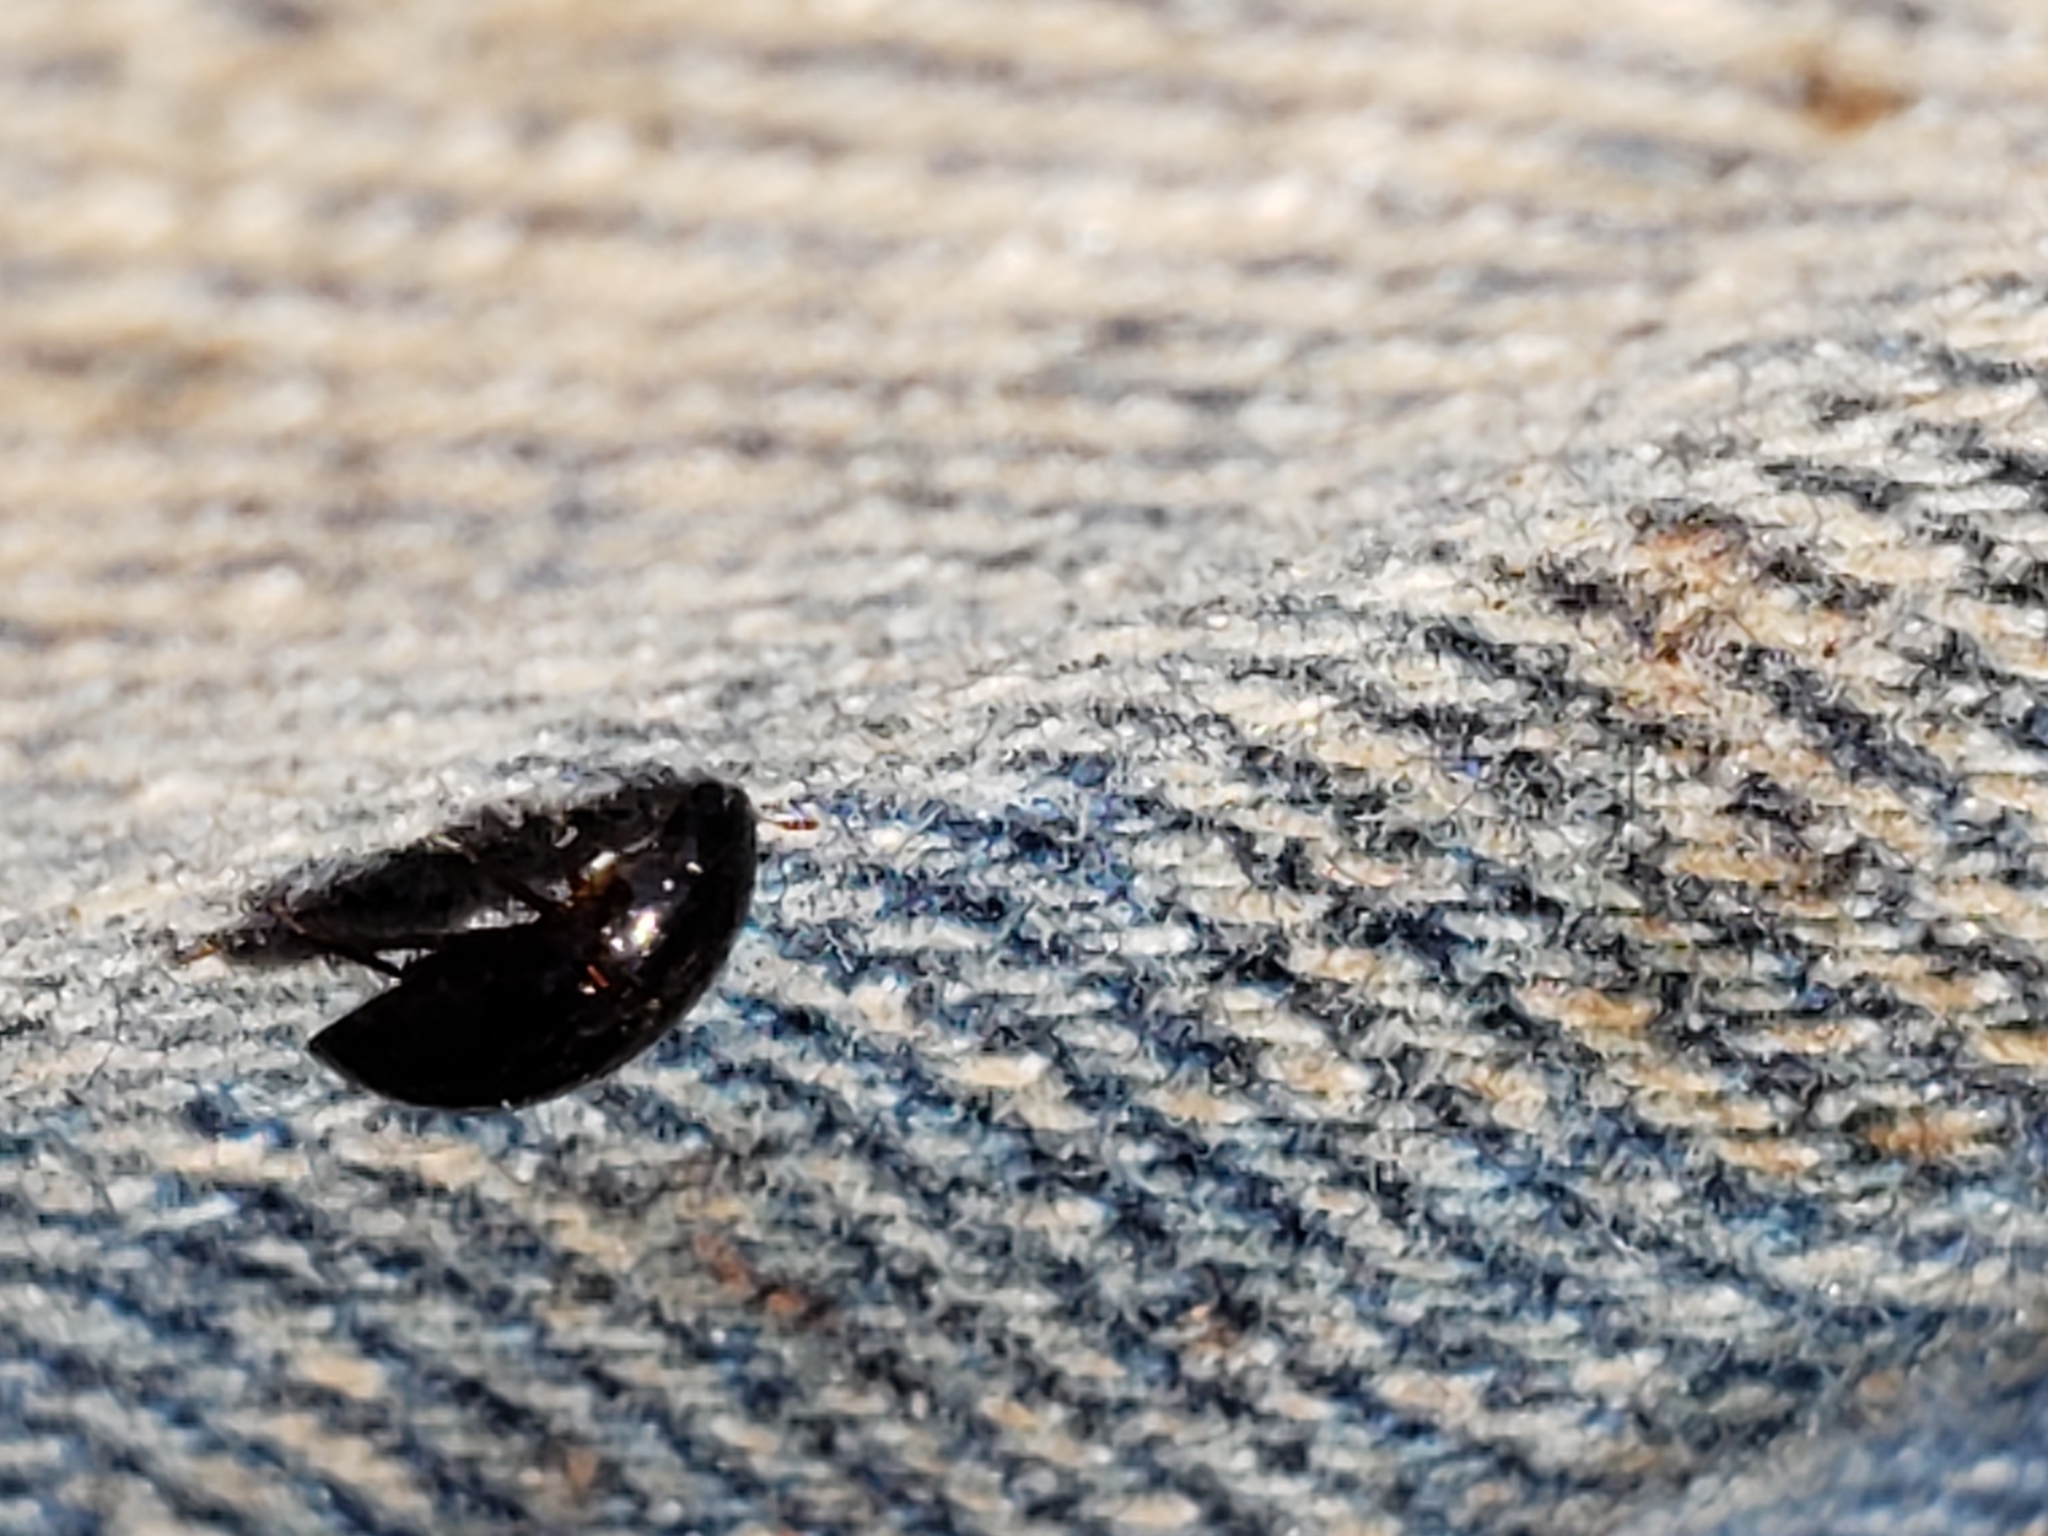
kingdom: Animalia
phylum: Arthropoda
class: Insecta
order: Coleoptera
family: Hydrophilidae
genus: Enochrus
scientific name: Enochrus
